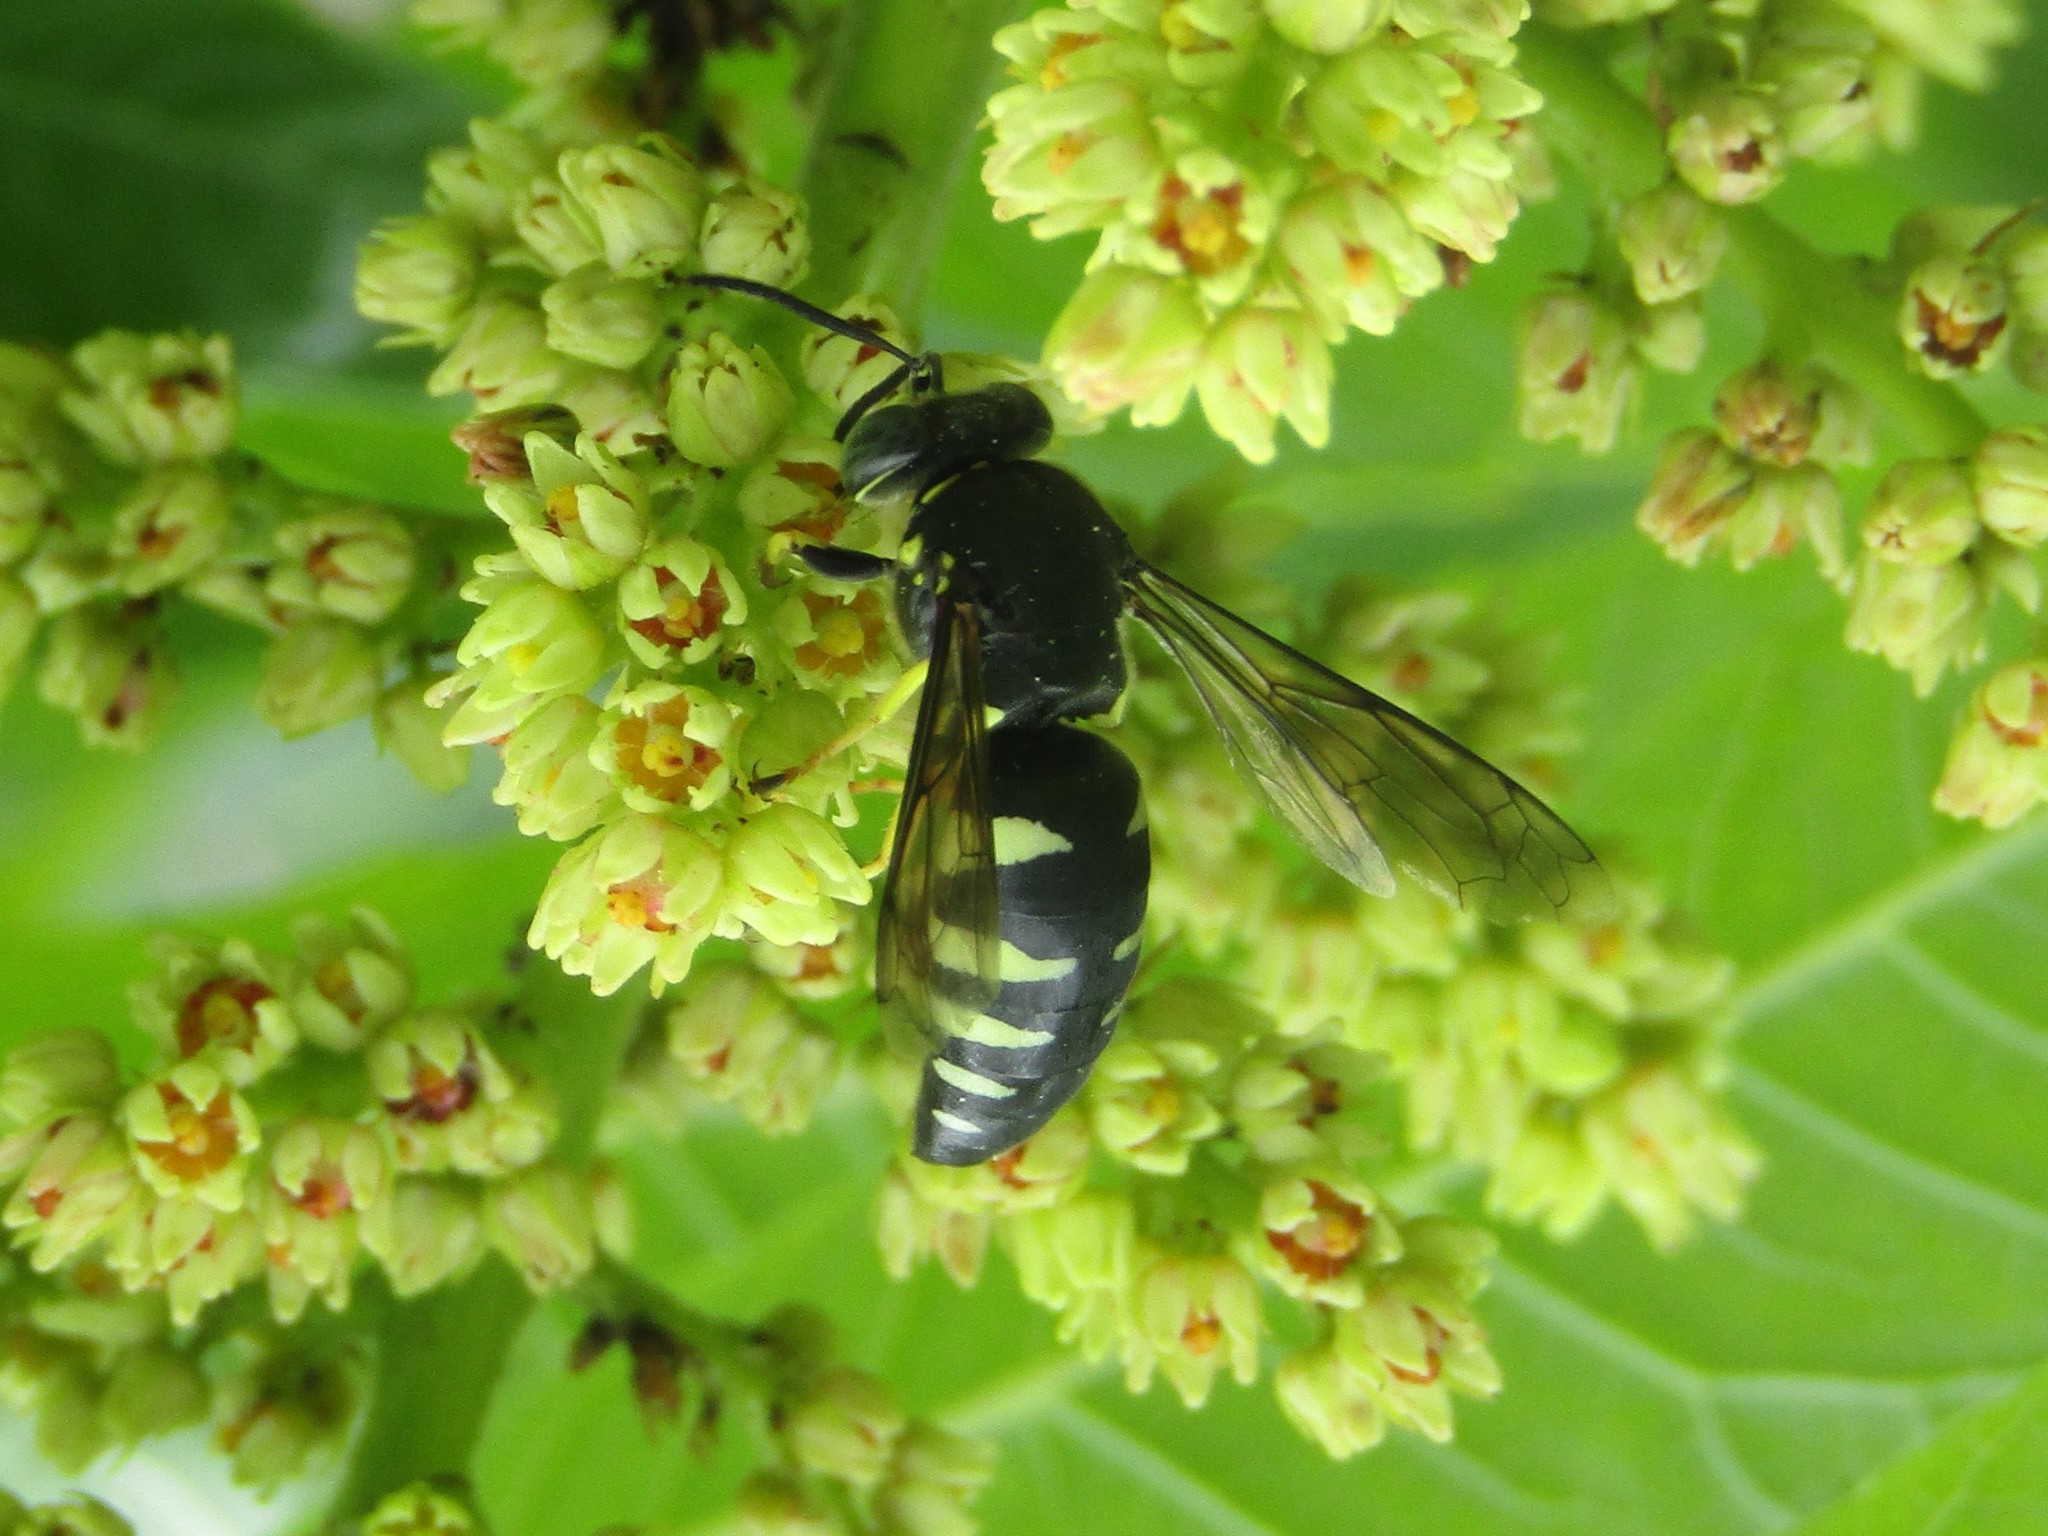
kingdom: Animalia
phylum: Arthropoda
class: Insecta
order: Hymenoptera
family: Crabronidae
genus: Bicyrtes
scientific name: Bicyrtes quadrifasciatus
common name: Four-banded stink bug hunter wasp
